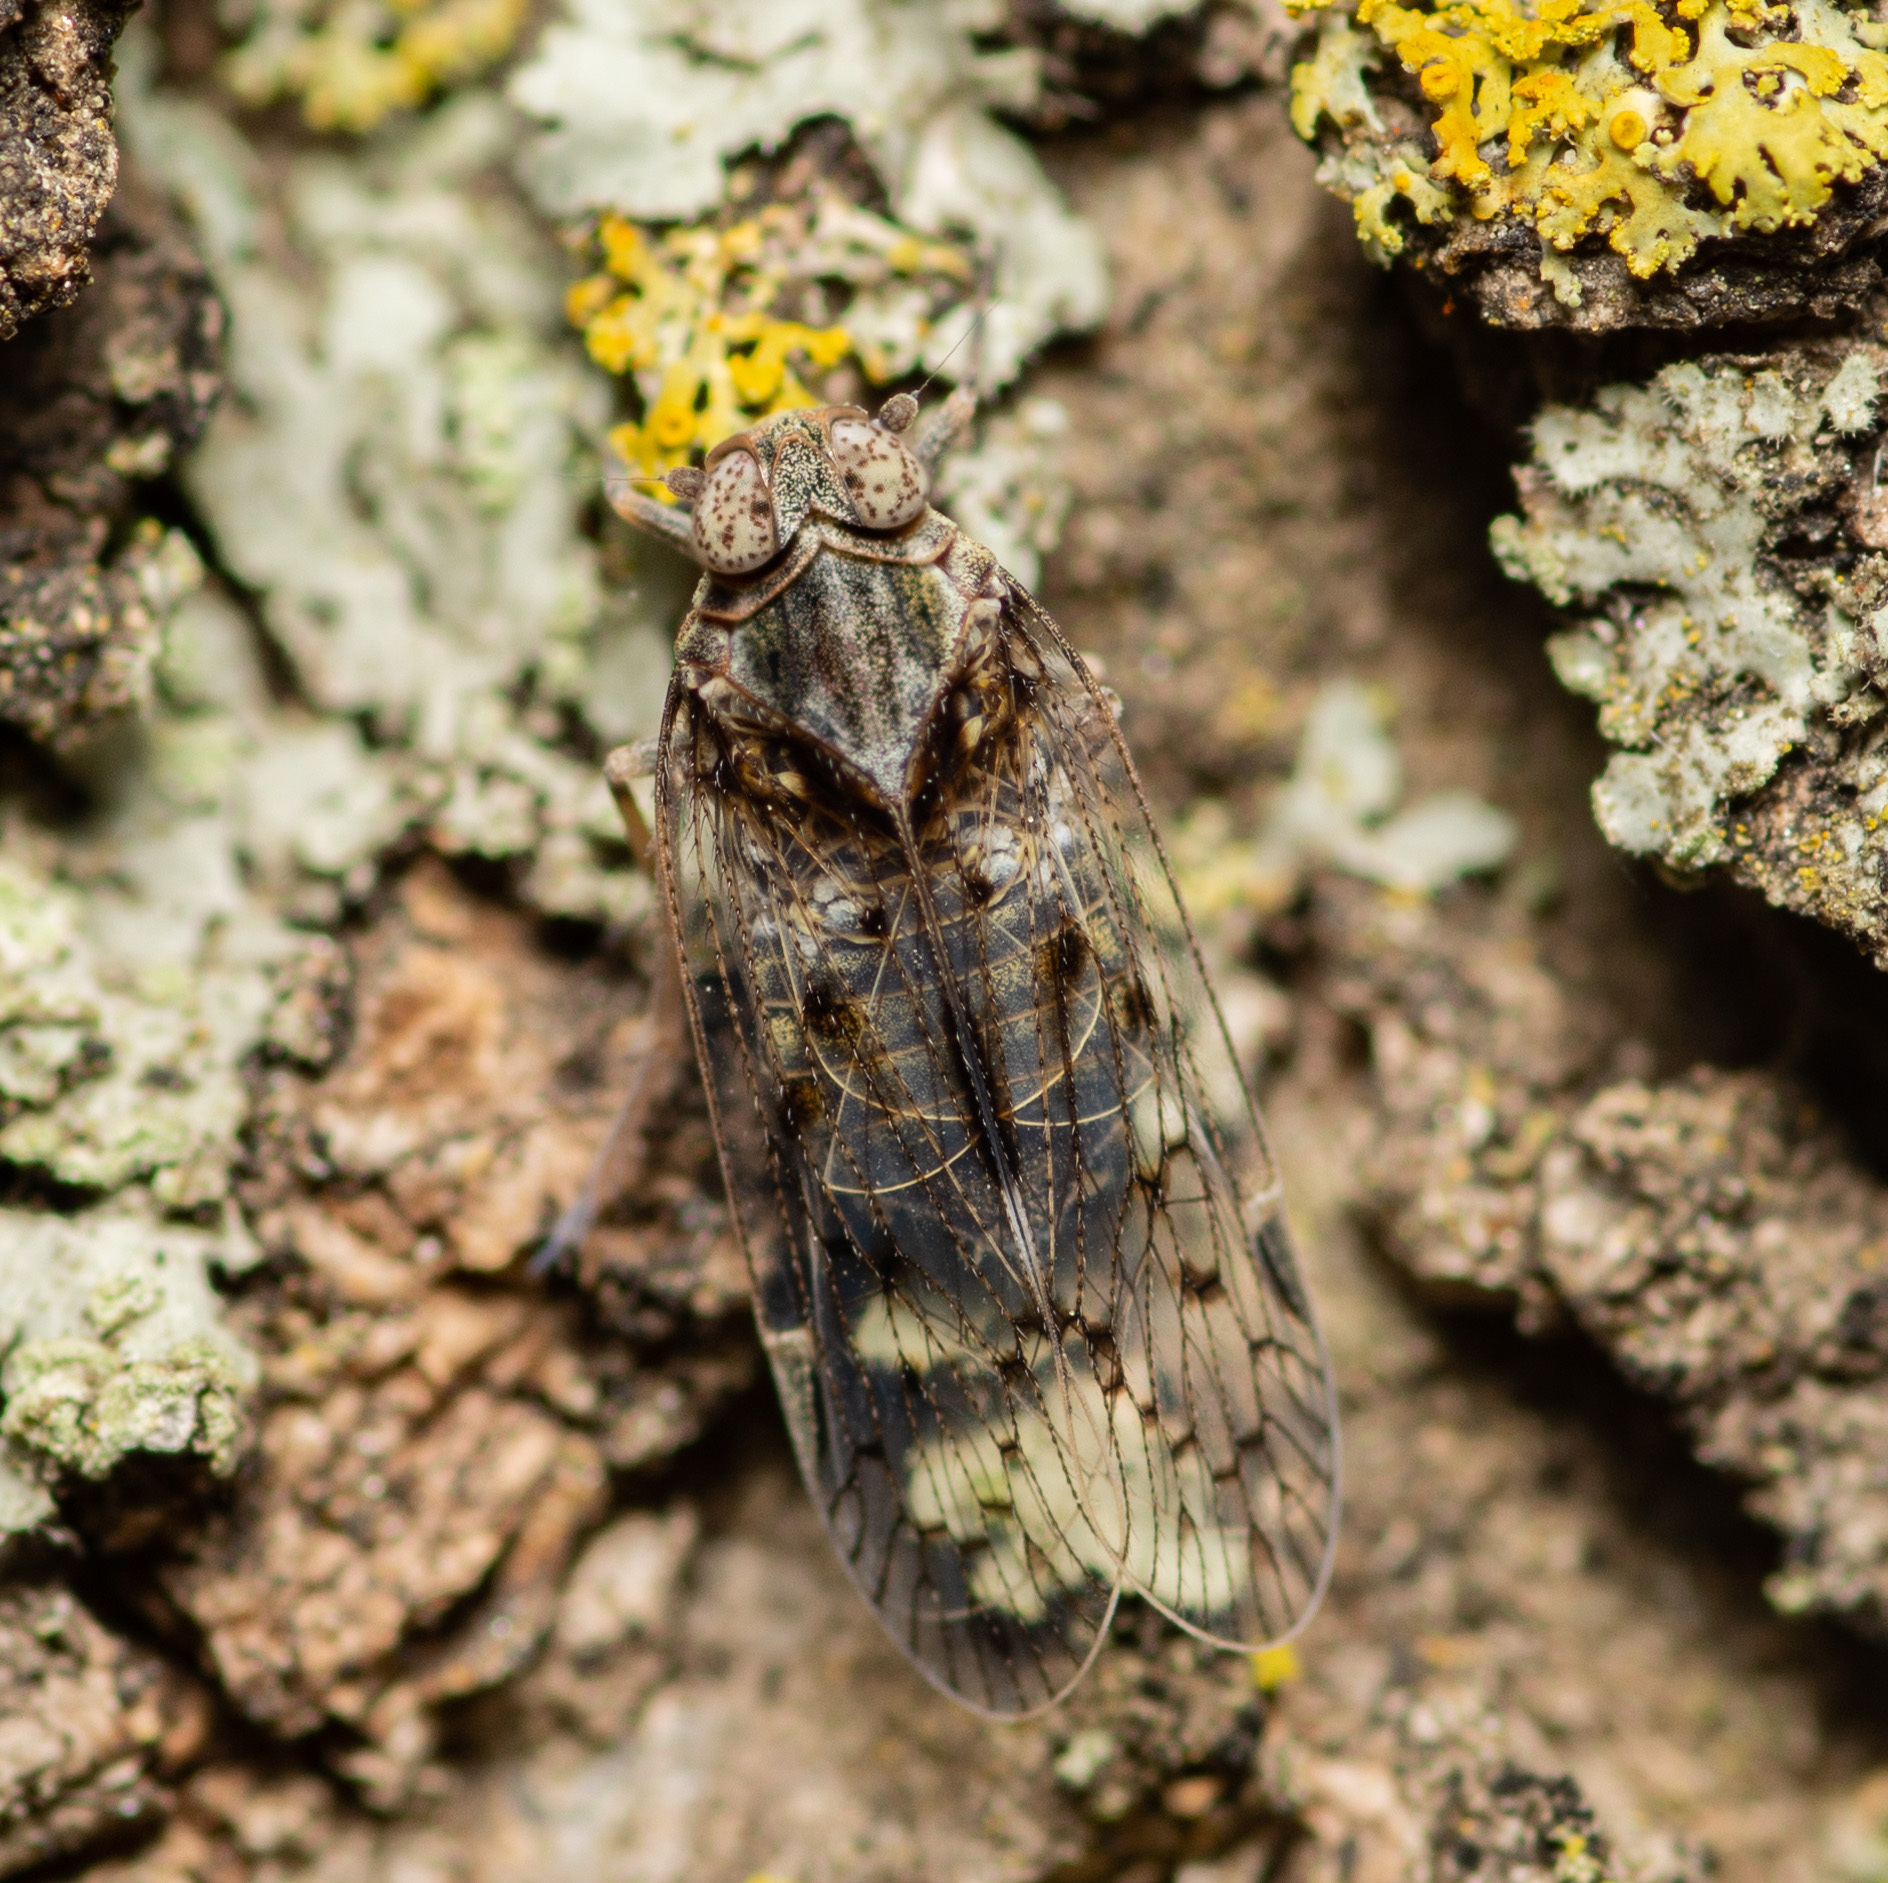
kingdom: Animalia
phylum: Arthropoda
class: Insecta
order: Hemiptera
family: Cixiidae
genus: Melanoliarus
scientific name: Melanoliarus aridus
